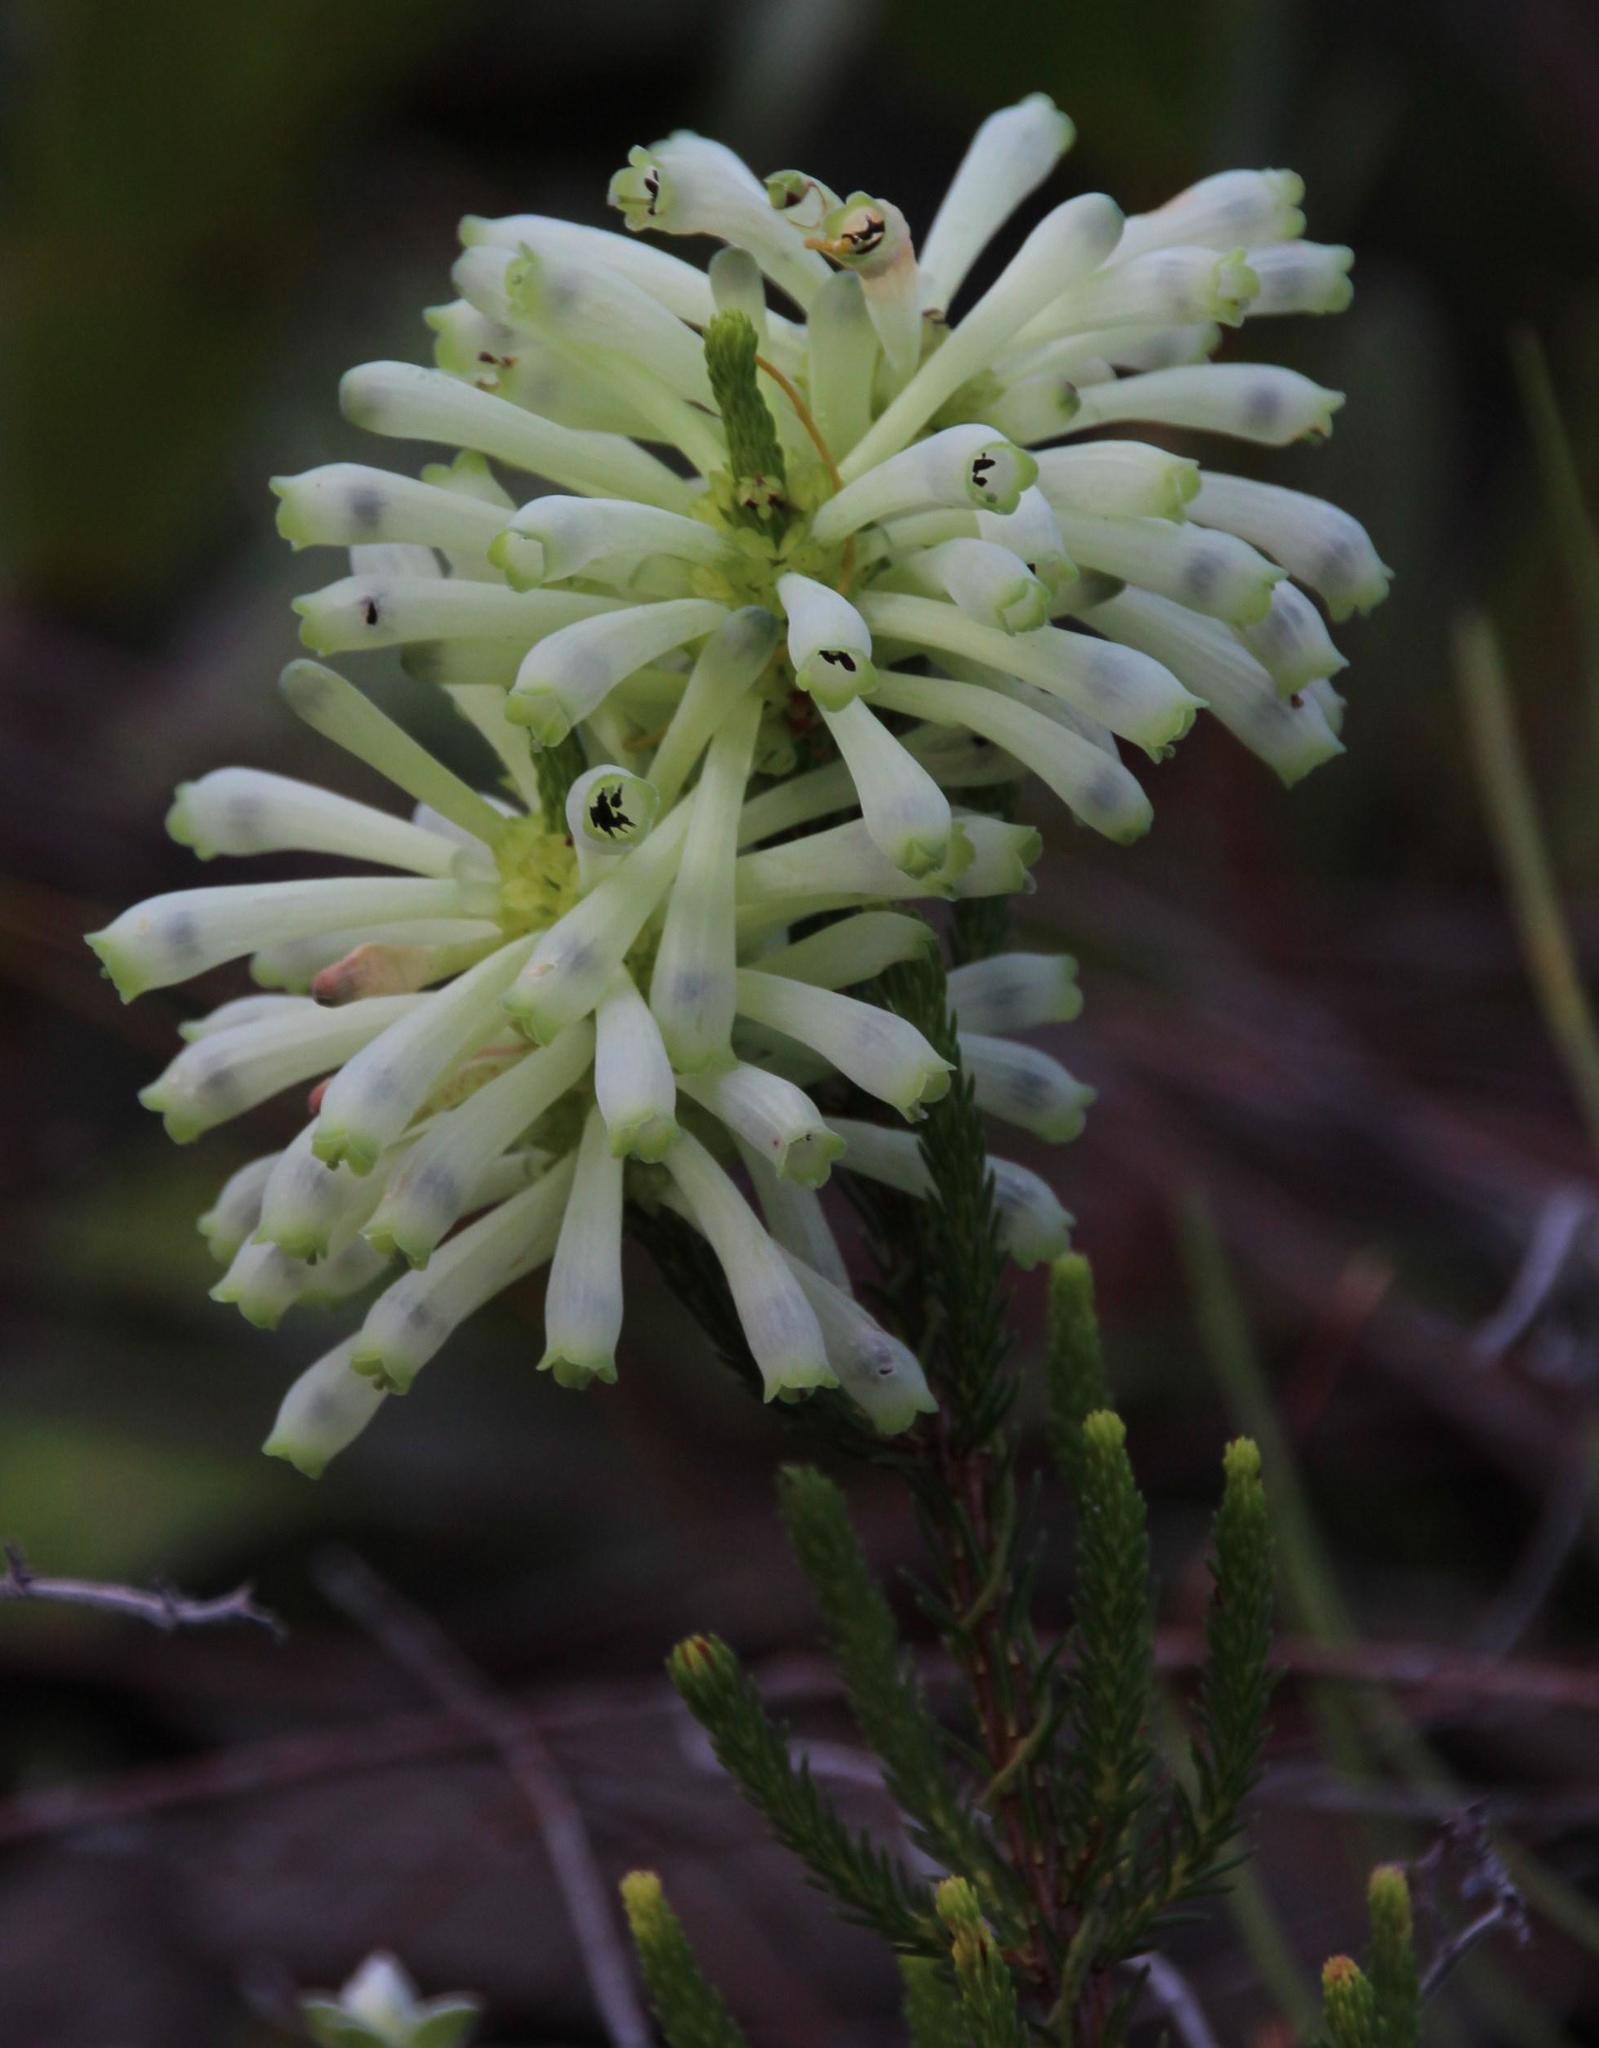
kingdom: Plantae
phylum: Tracheophyta
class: Magnoliopsida
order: Ericales
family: Ericaceae
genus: Erica
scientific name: Erica sessiliflora
